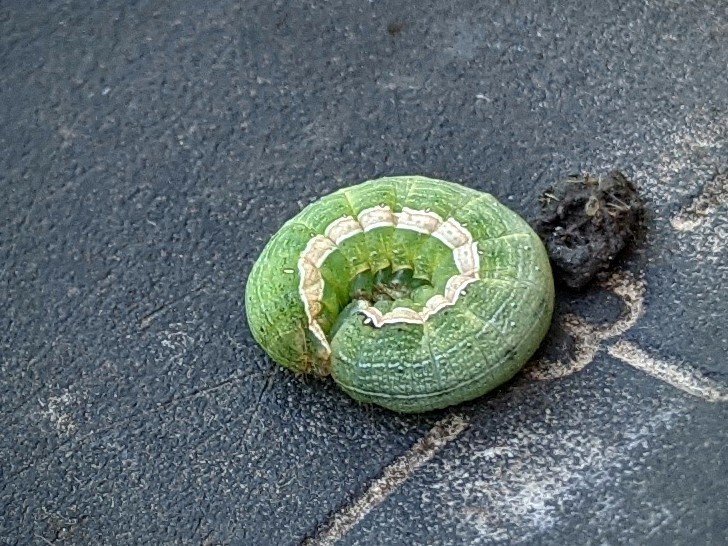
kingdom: Animalia
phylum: Arthropoda
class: Insecta
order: Lepidoptera
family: Noctuidae
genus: Anicla
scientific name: Anicla infecta
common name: Green cutworm
